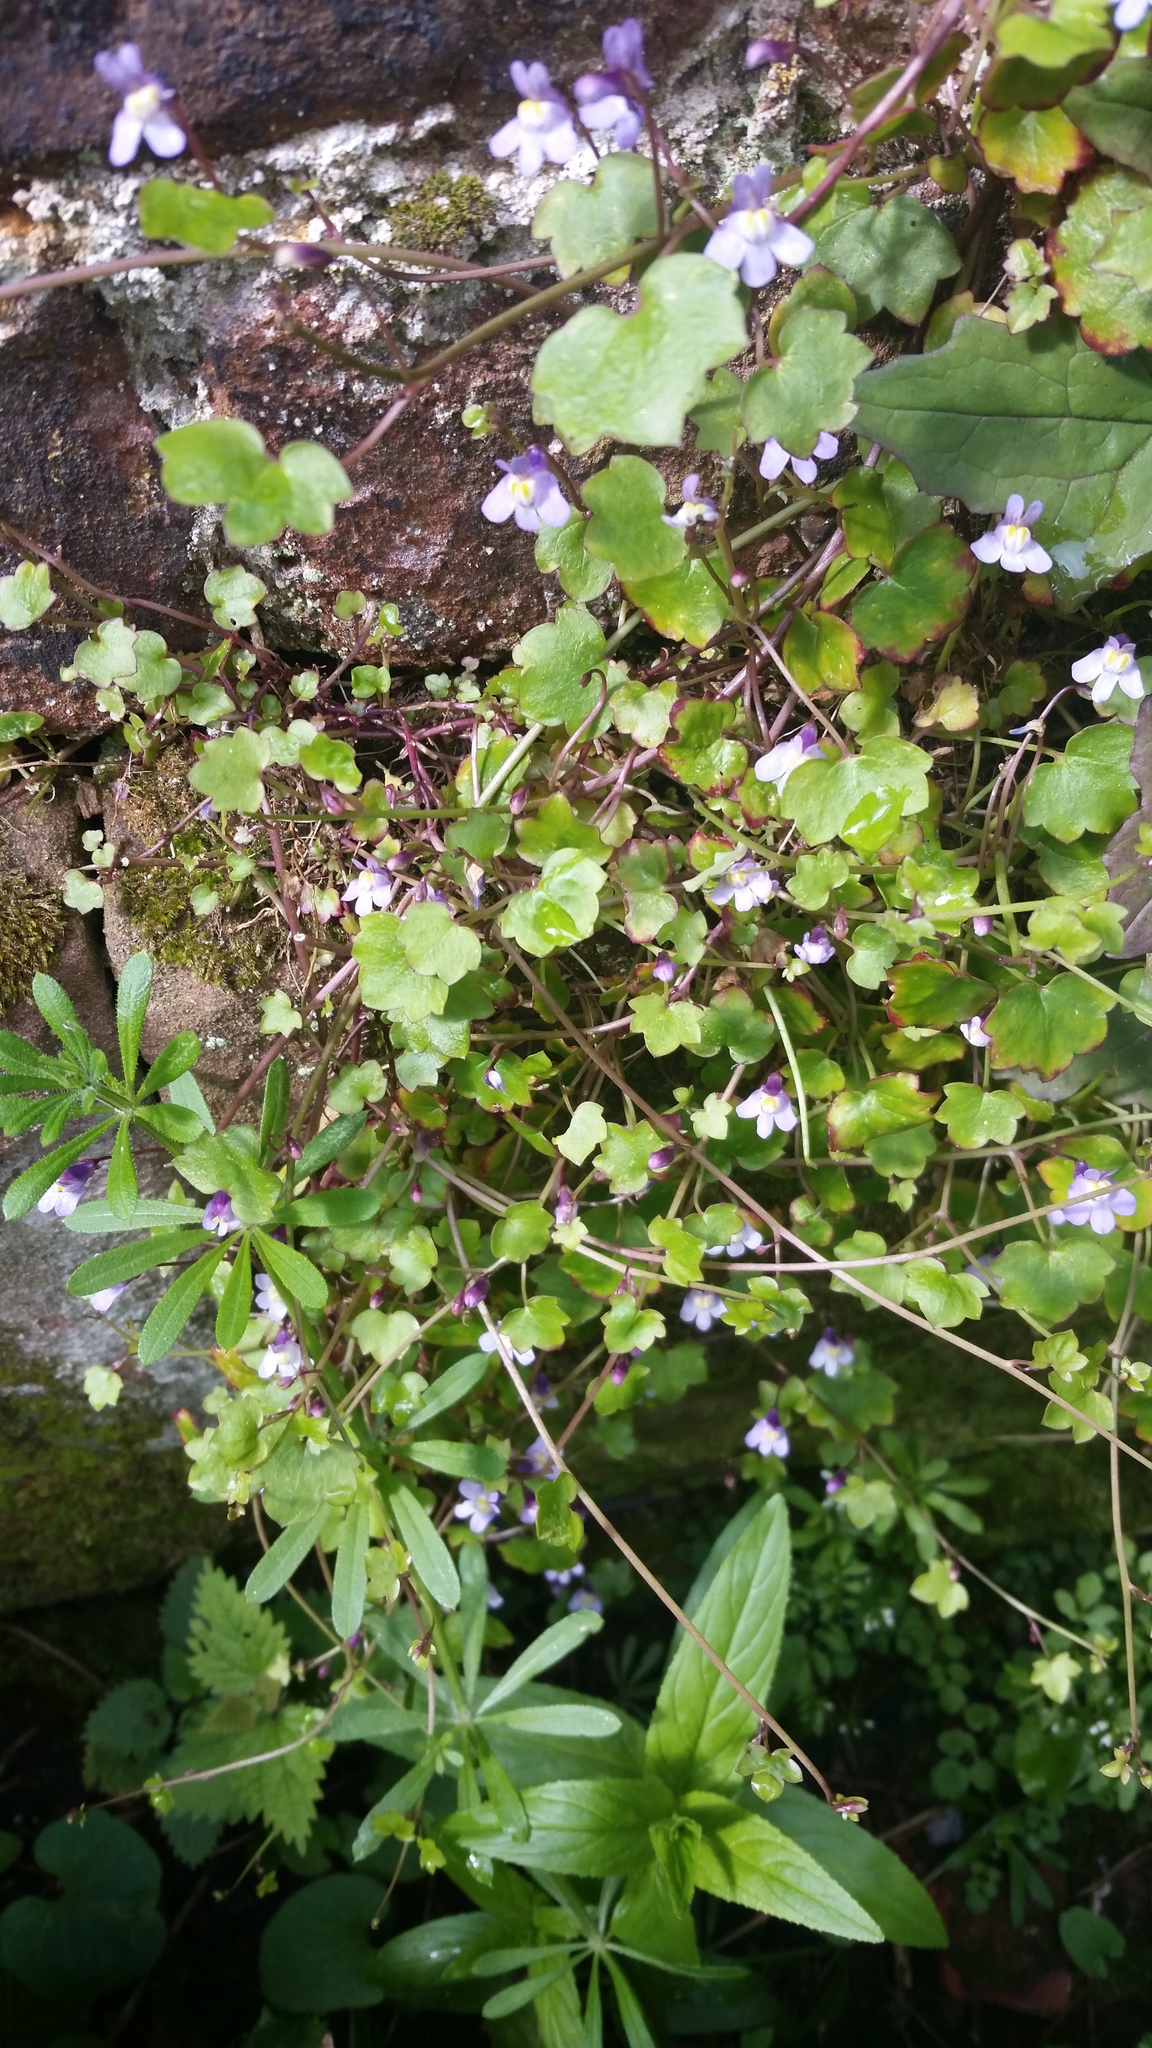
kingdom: Plantae
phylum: Tracheophyta
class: Magnoliopsida
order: Lamiales
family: Plantaginaceae
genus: Cymbalaria
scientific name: Cymbalaria muralis
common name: Ivy-leaved toadflax
